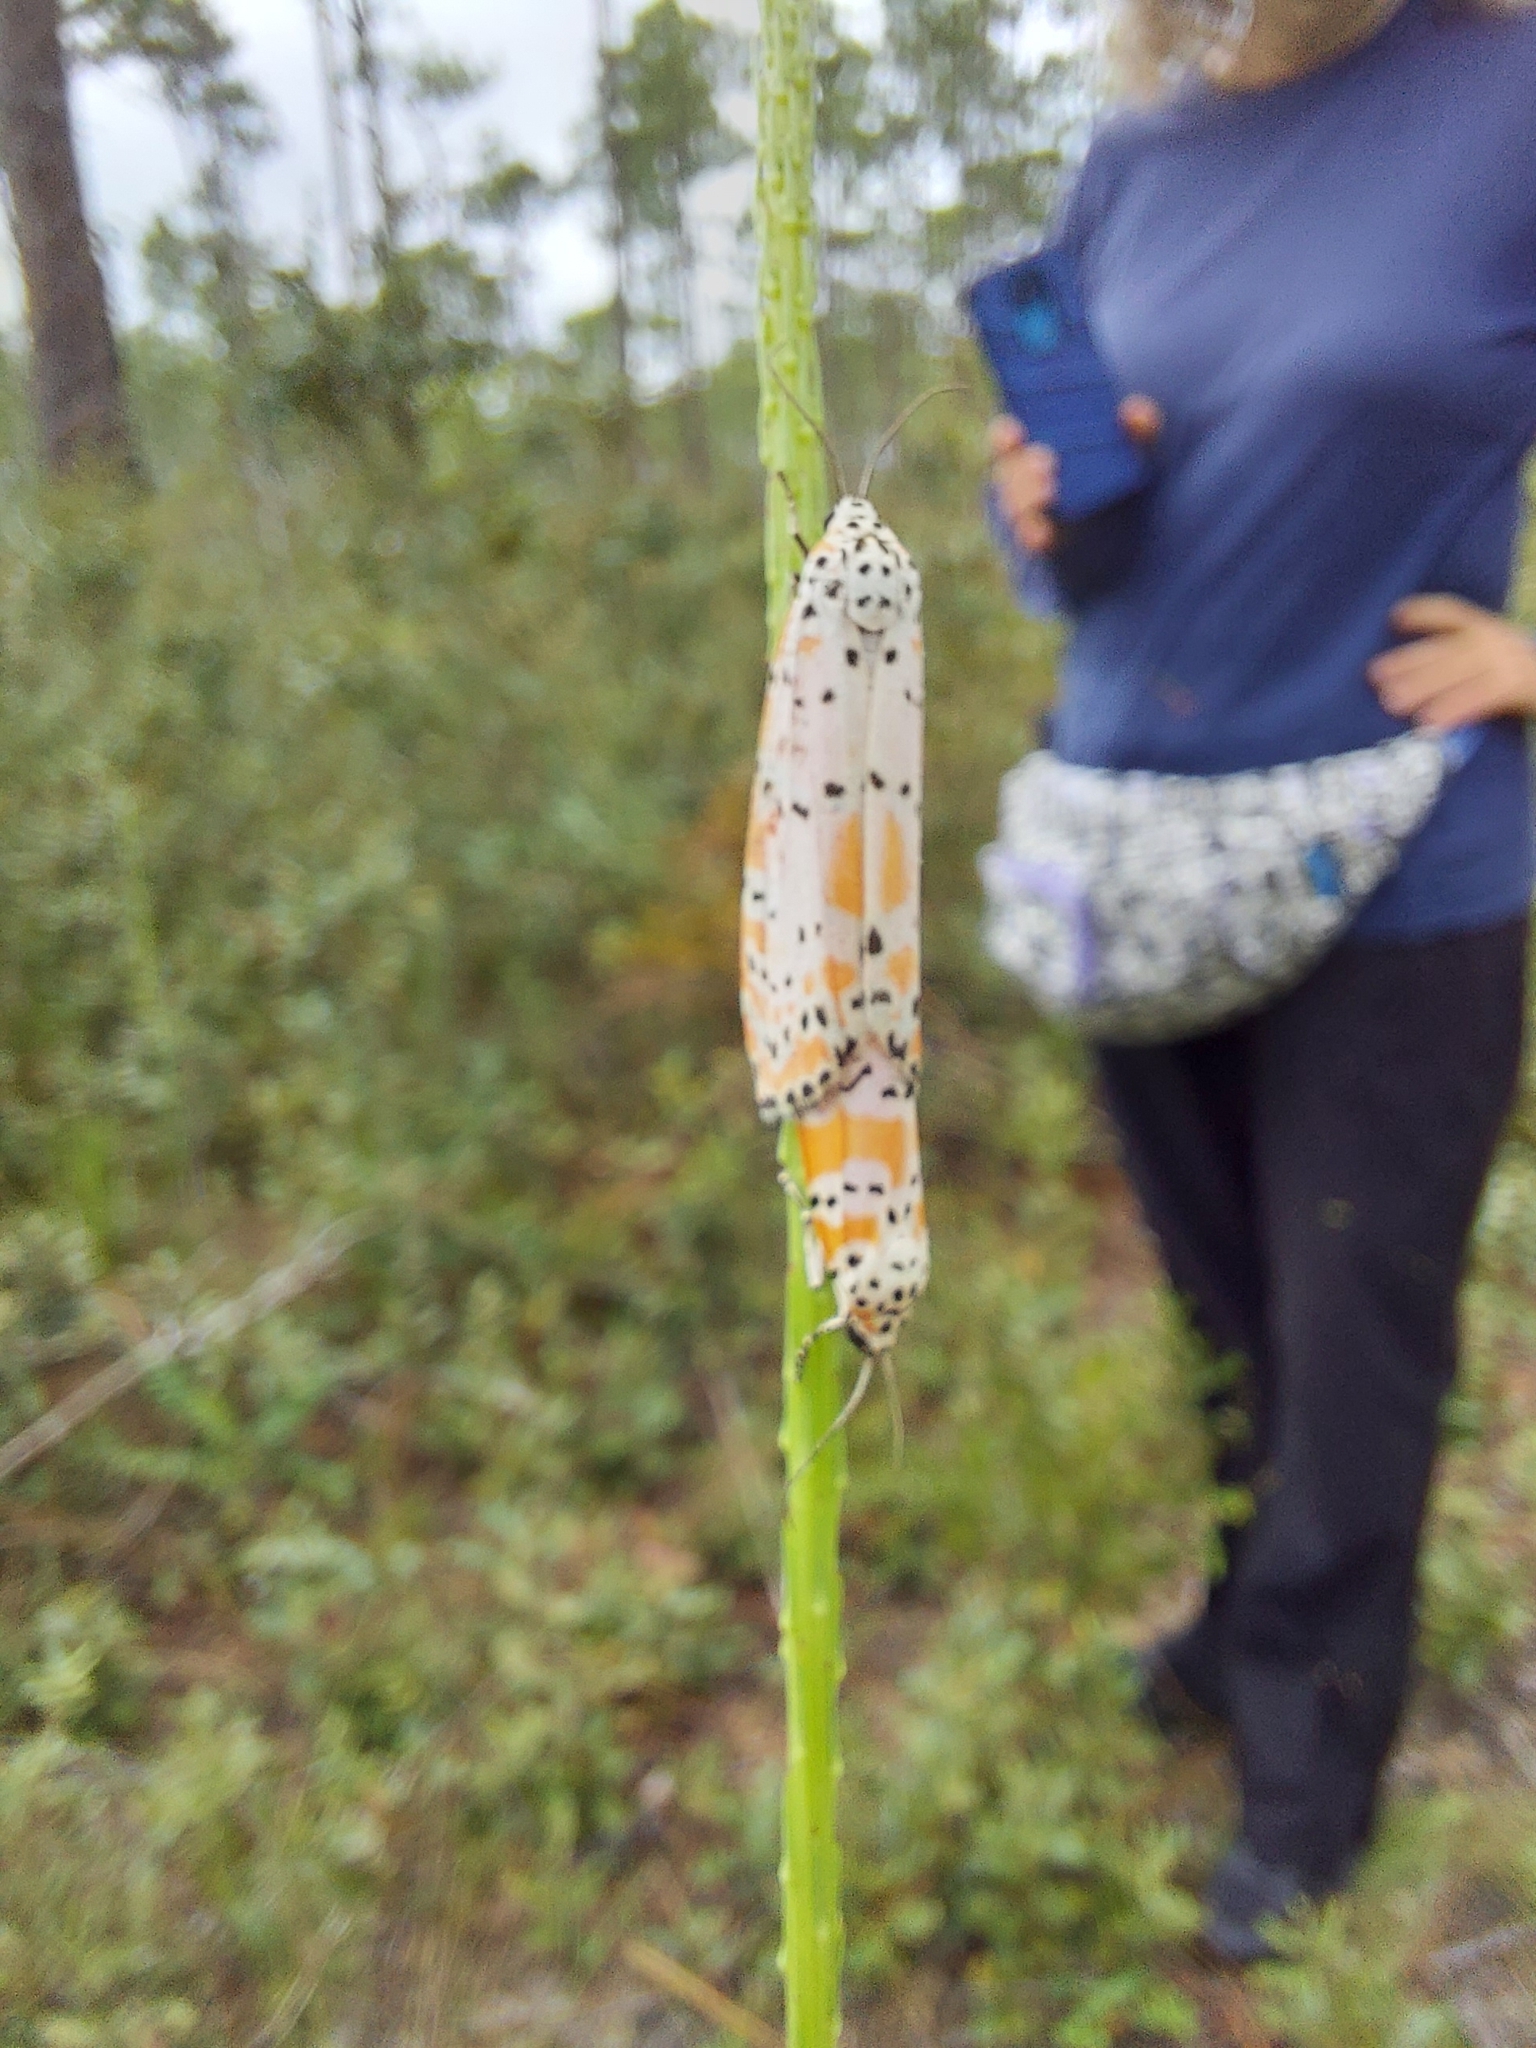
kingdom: Animalia
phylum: Arthropoda
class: Insecta
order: Lepidoptera
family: Erebidae
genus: Utetheisa
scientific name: Utetheisa ornatrix
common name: Beautiful utetheisa
